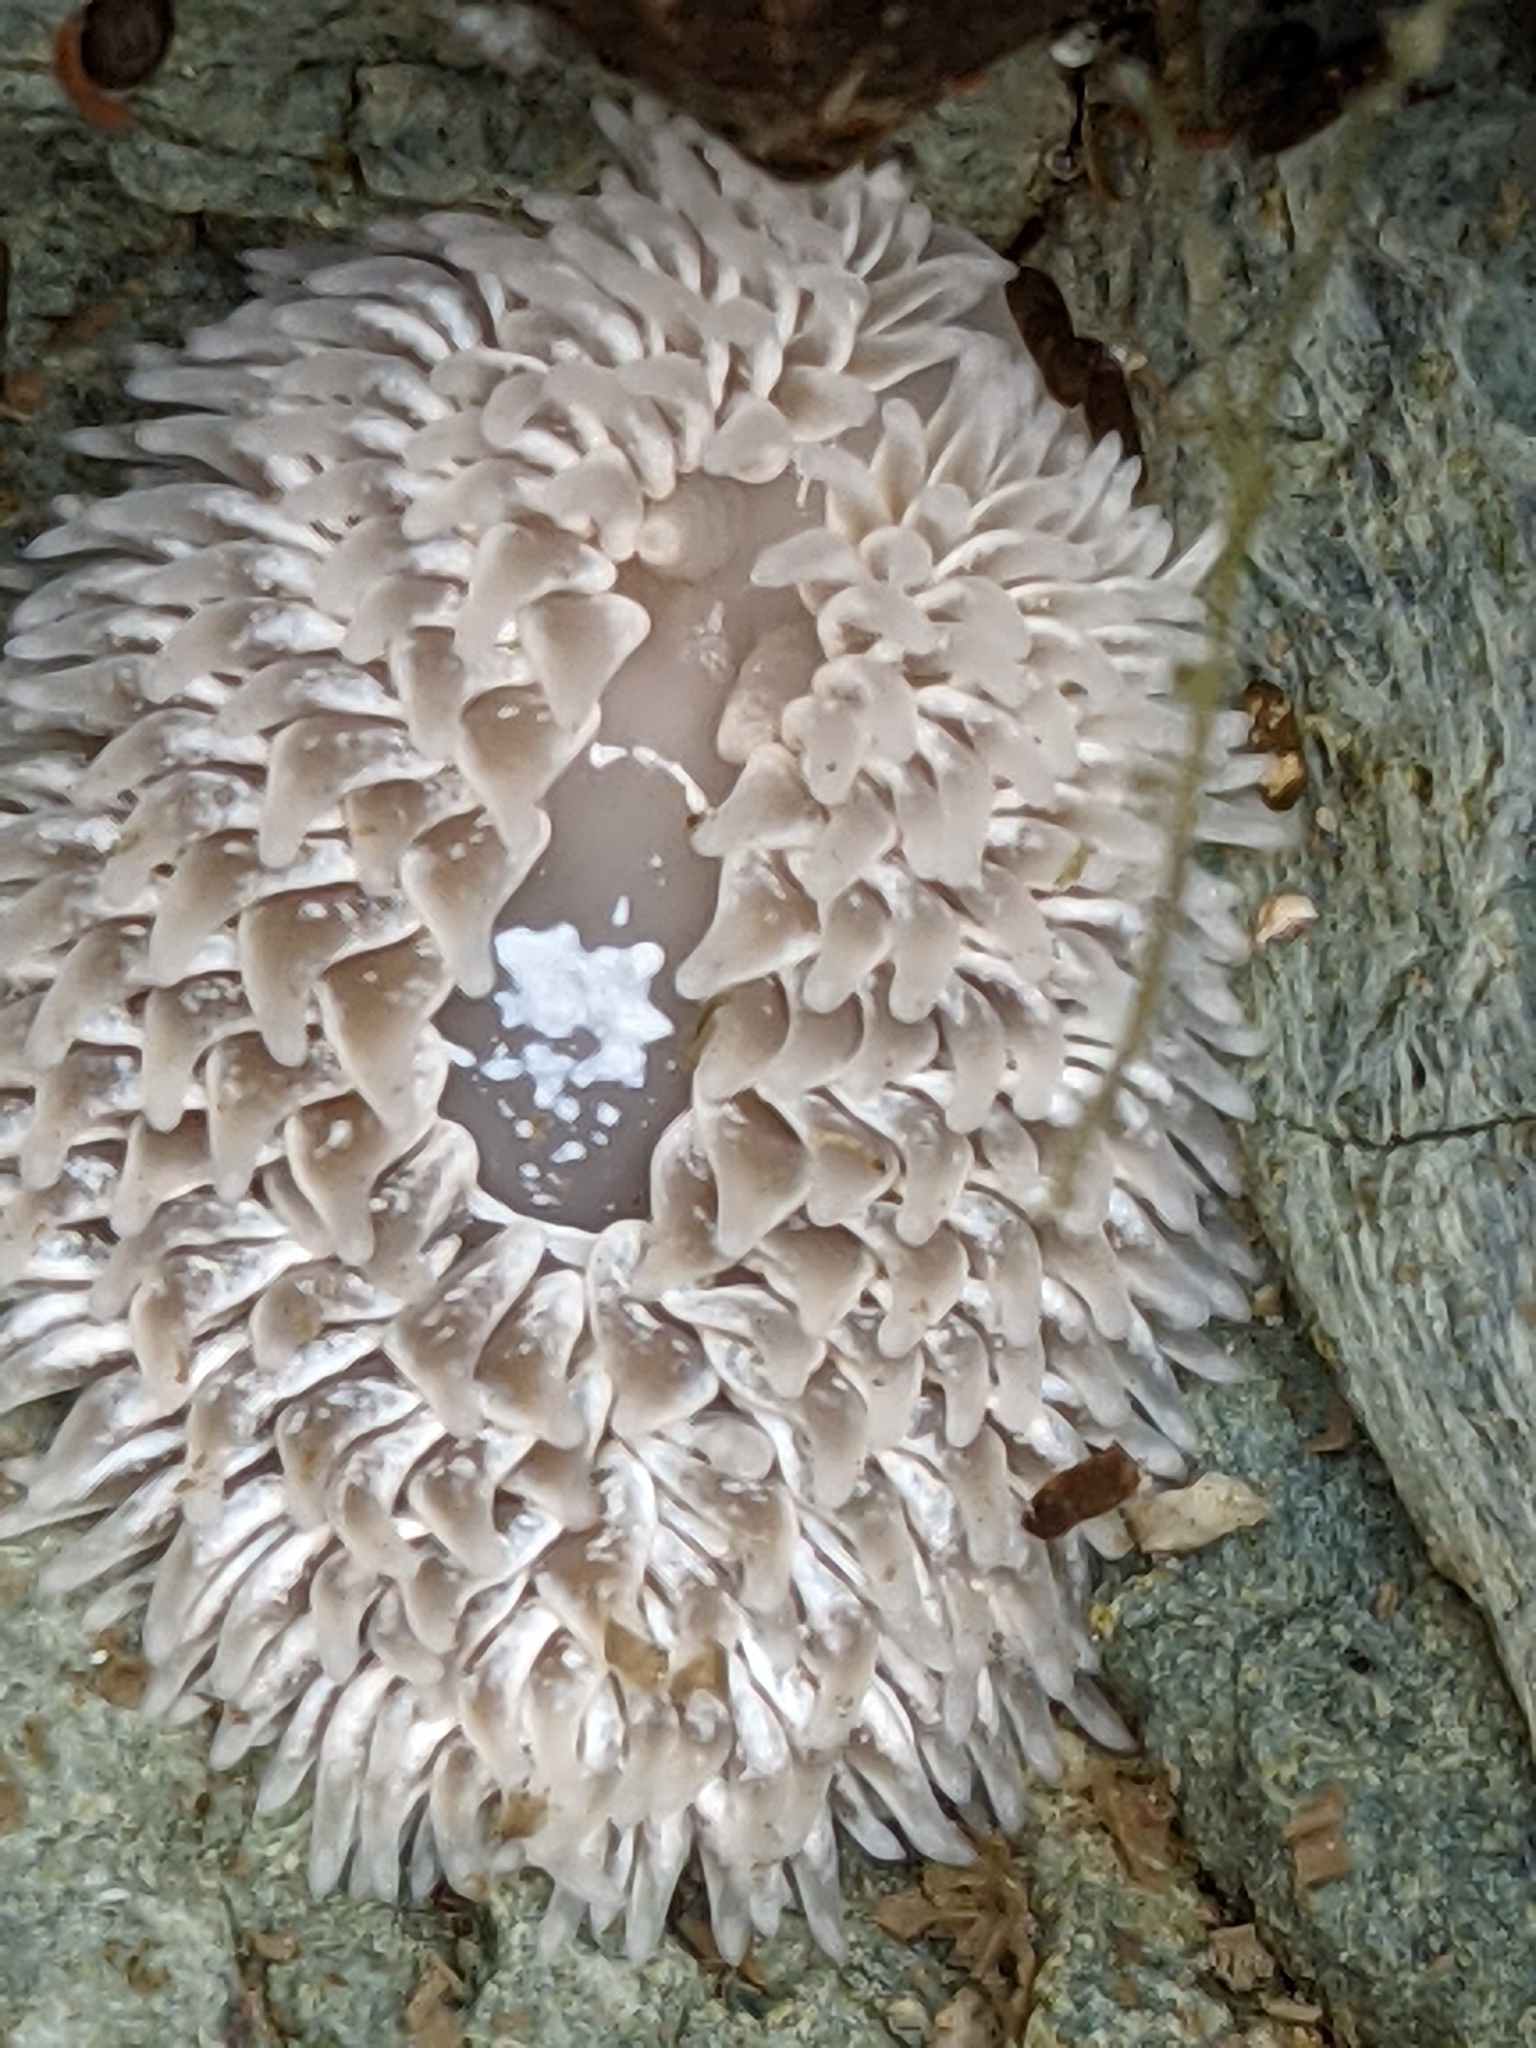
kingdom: Animalia
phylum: Mollusca
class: Gastropoda
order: Nudibranchia
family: Aeolidiidae
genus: Aeolidia
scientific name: Aeolidia papillosa
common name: Common grey sea slug
